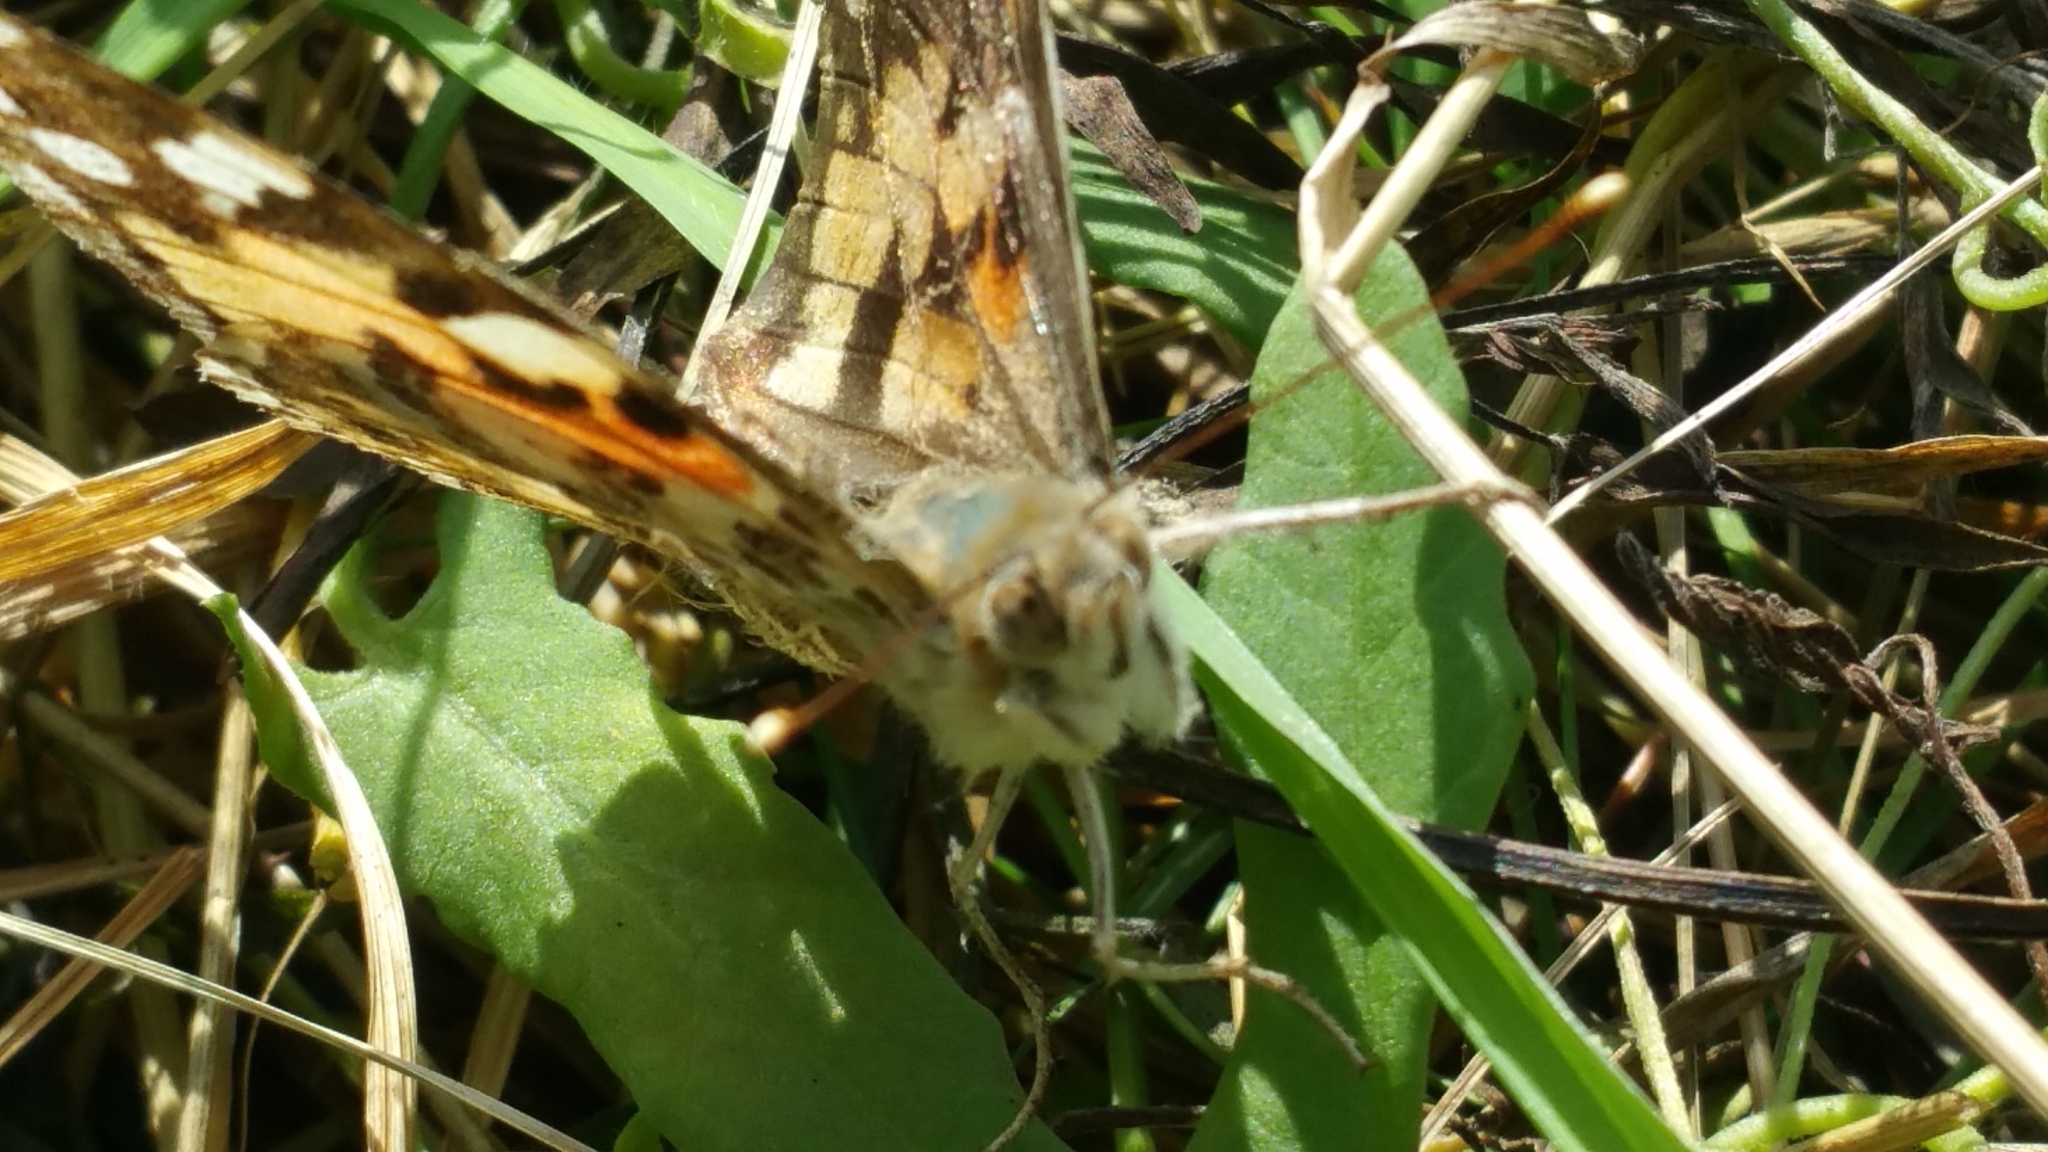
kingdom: Animalia
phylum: Arthropoda
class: Insecta
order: Lepidoptera
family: Nymphalidae
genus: Vanessa
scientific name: Vanessa cardui
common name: Painted lady
